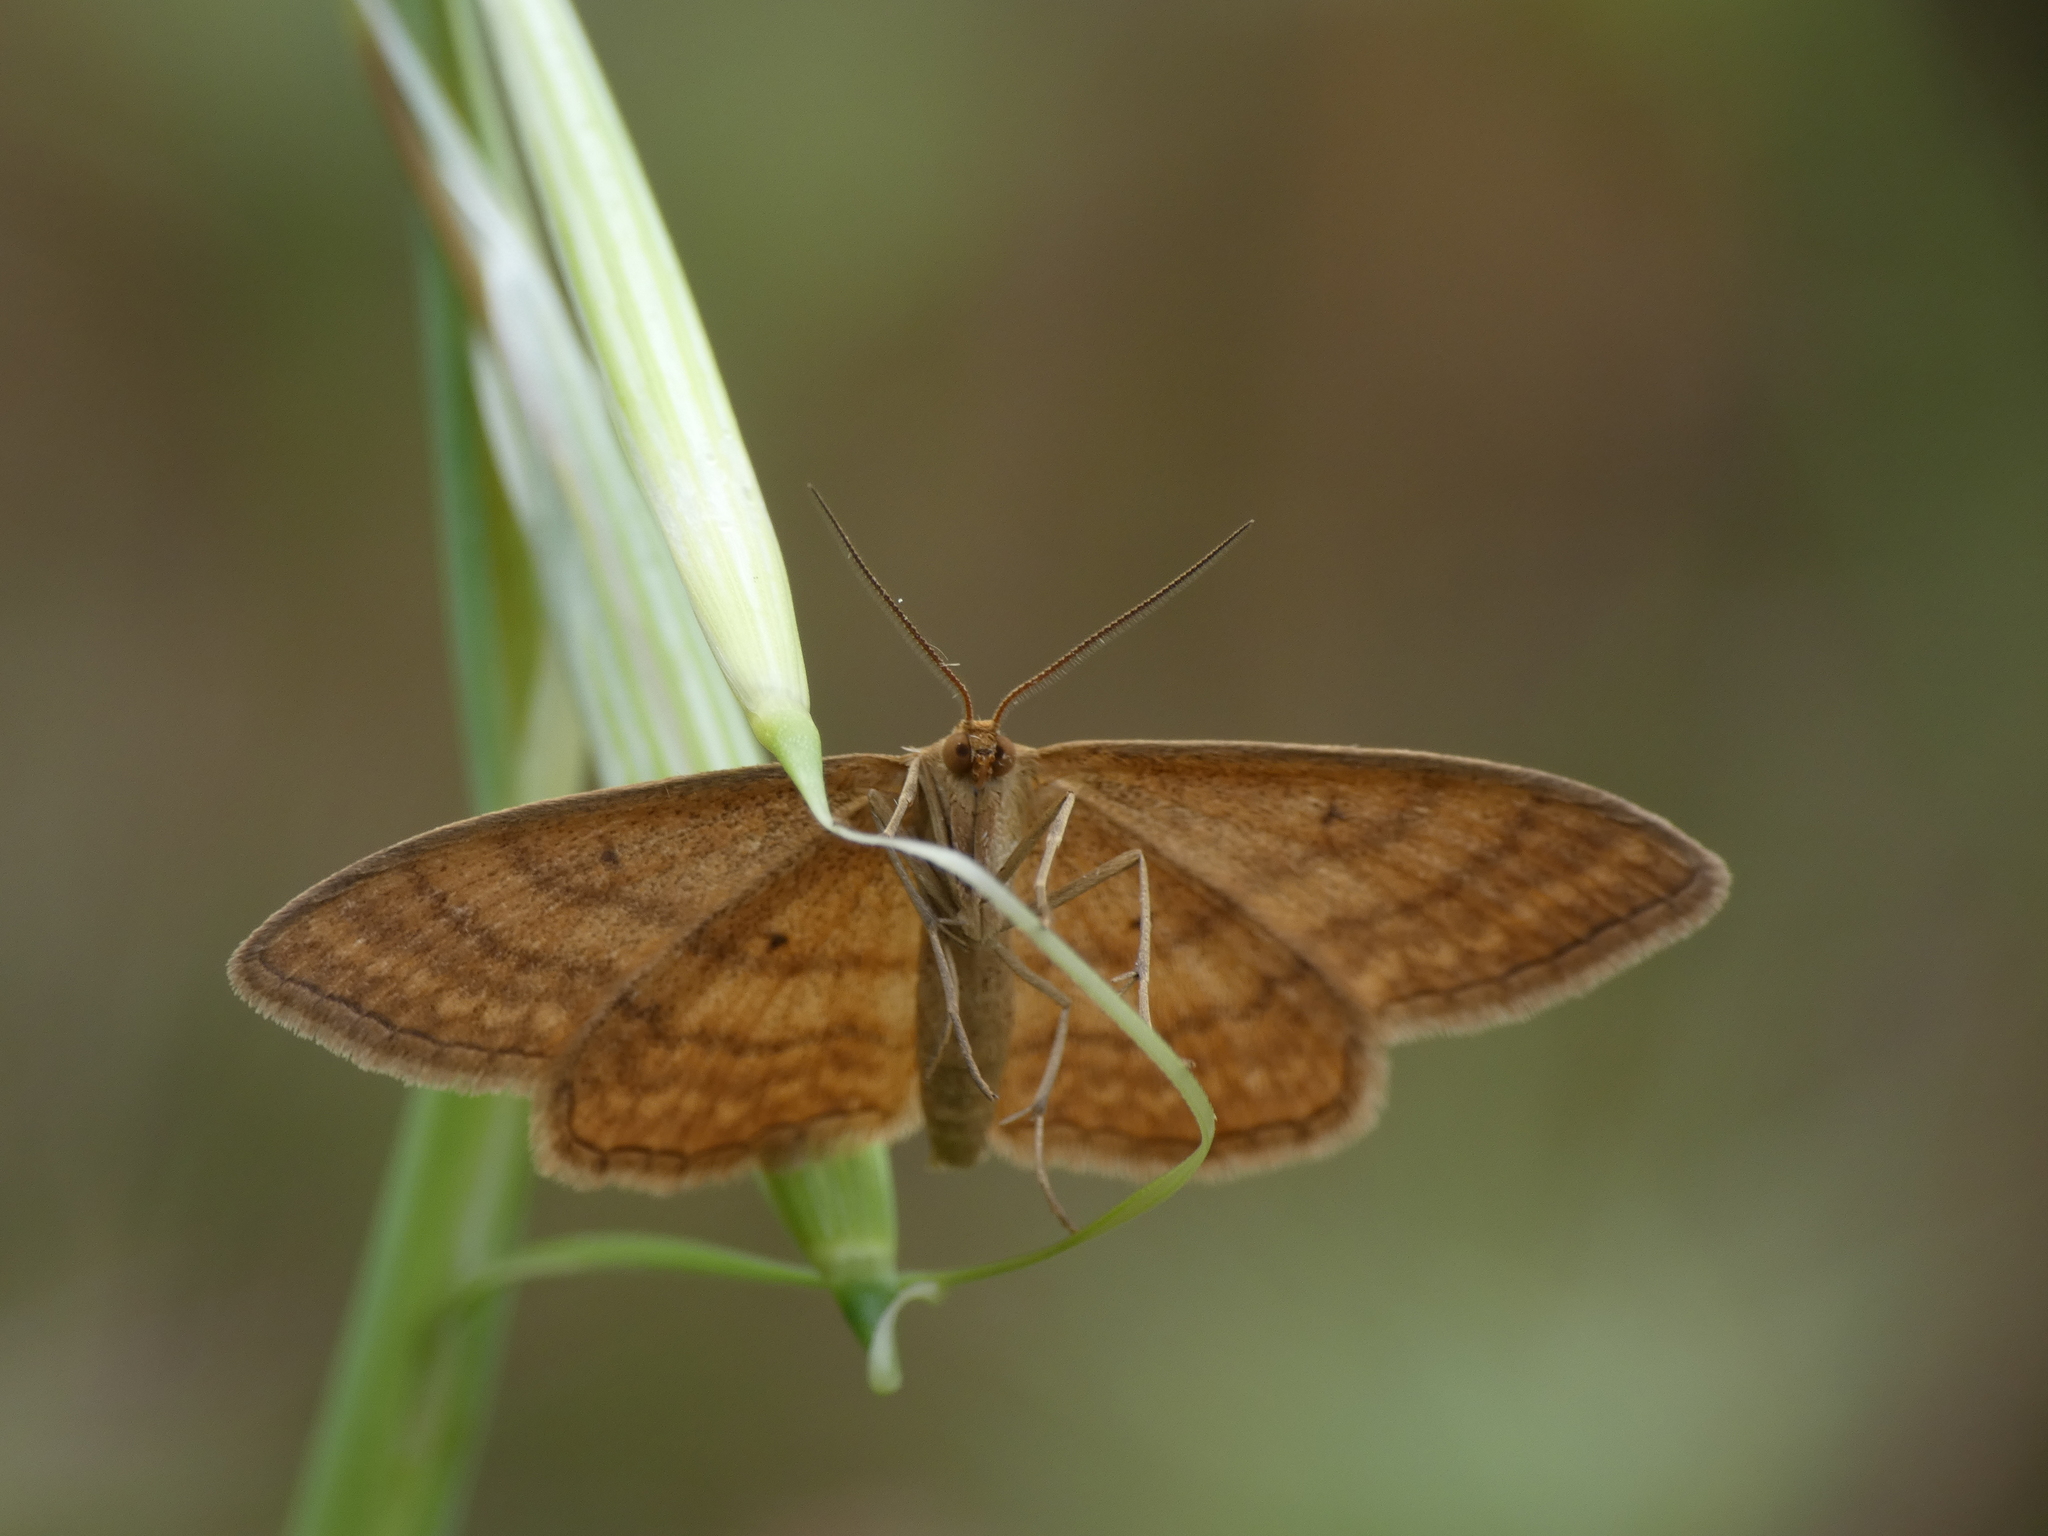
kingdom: Animalia
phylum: Arthropoda
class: Insecta
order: Lepidoptera
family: Geometridae
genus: Idaea
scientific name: Idaea ochrata
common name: Bright wave
